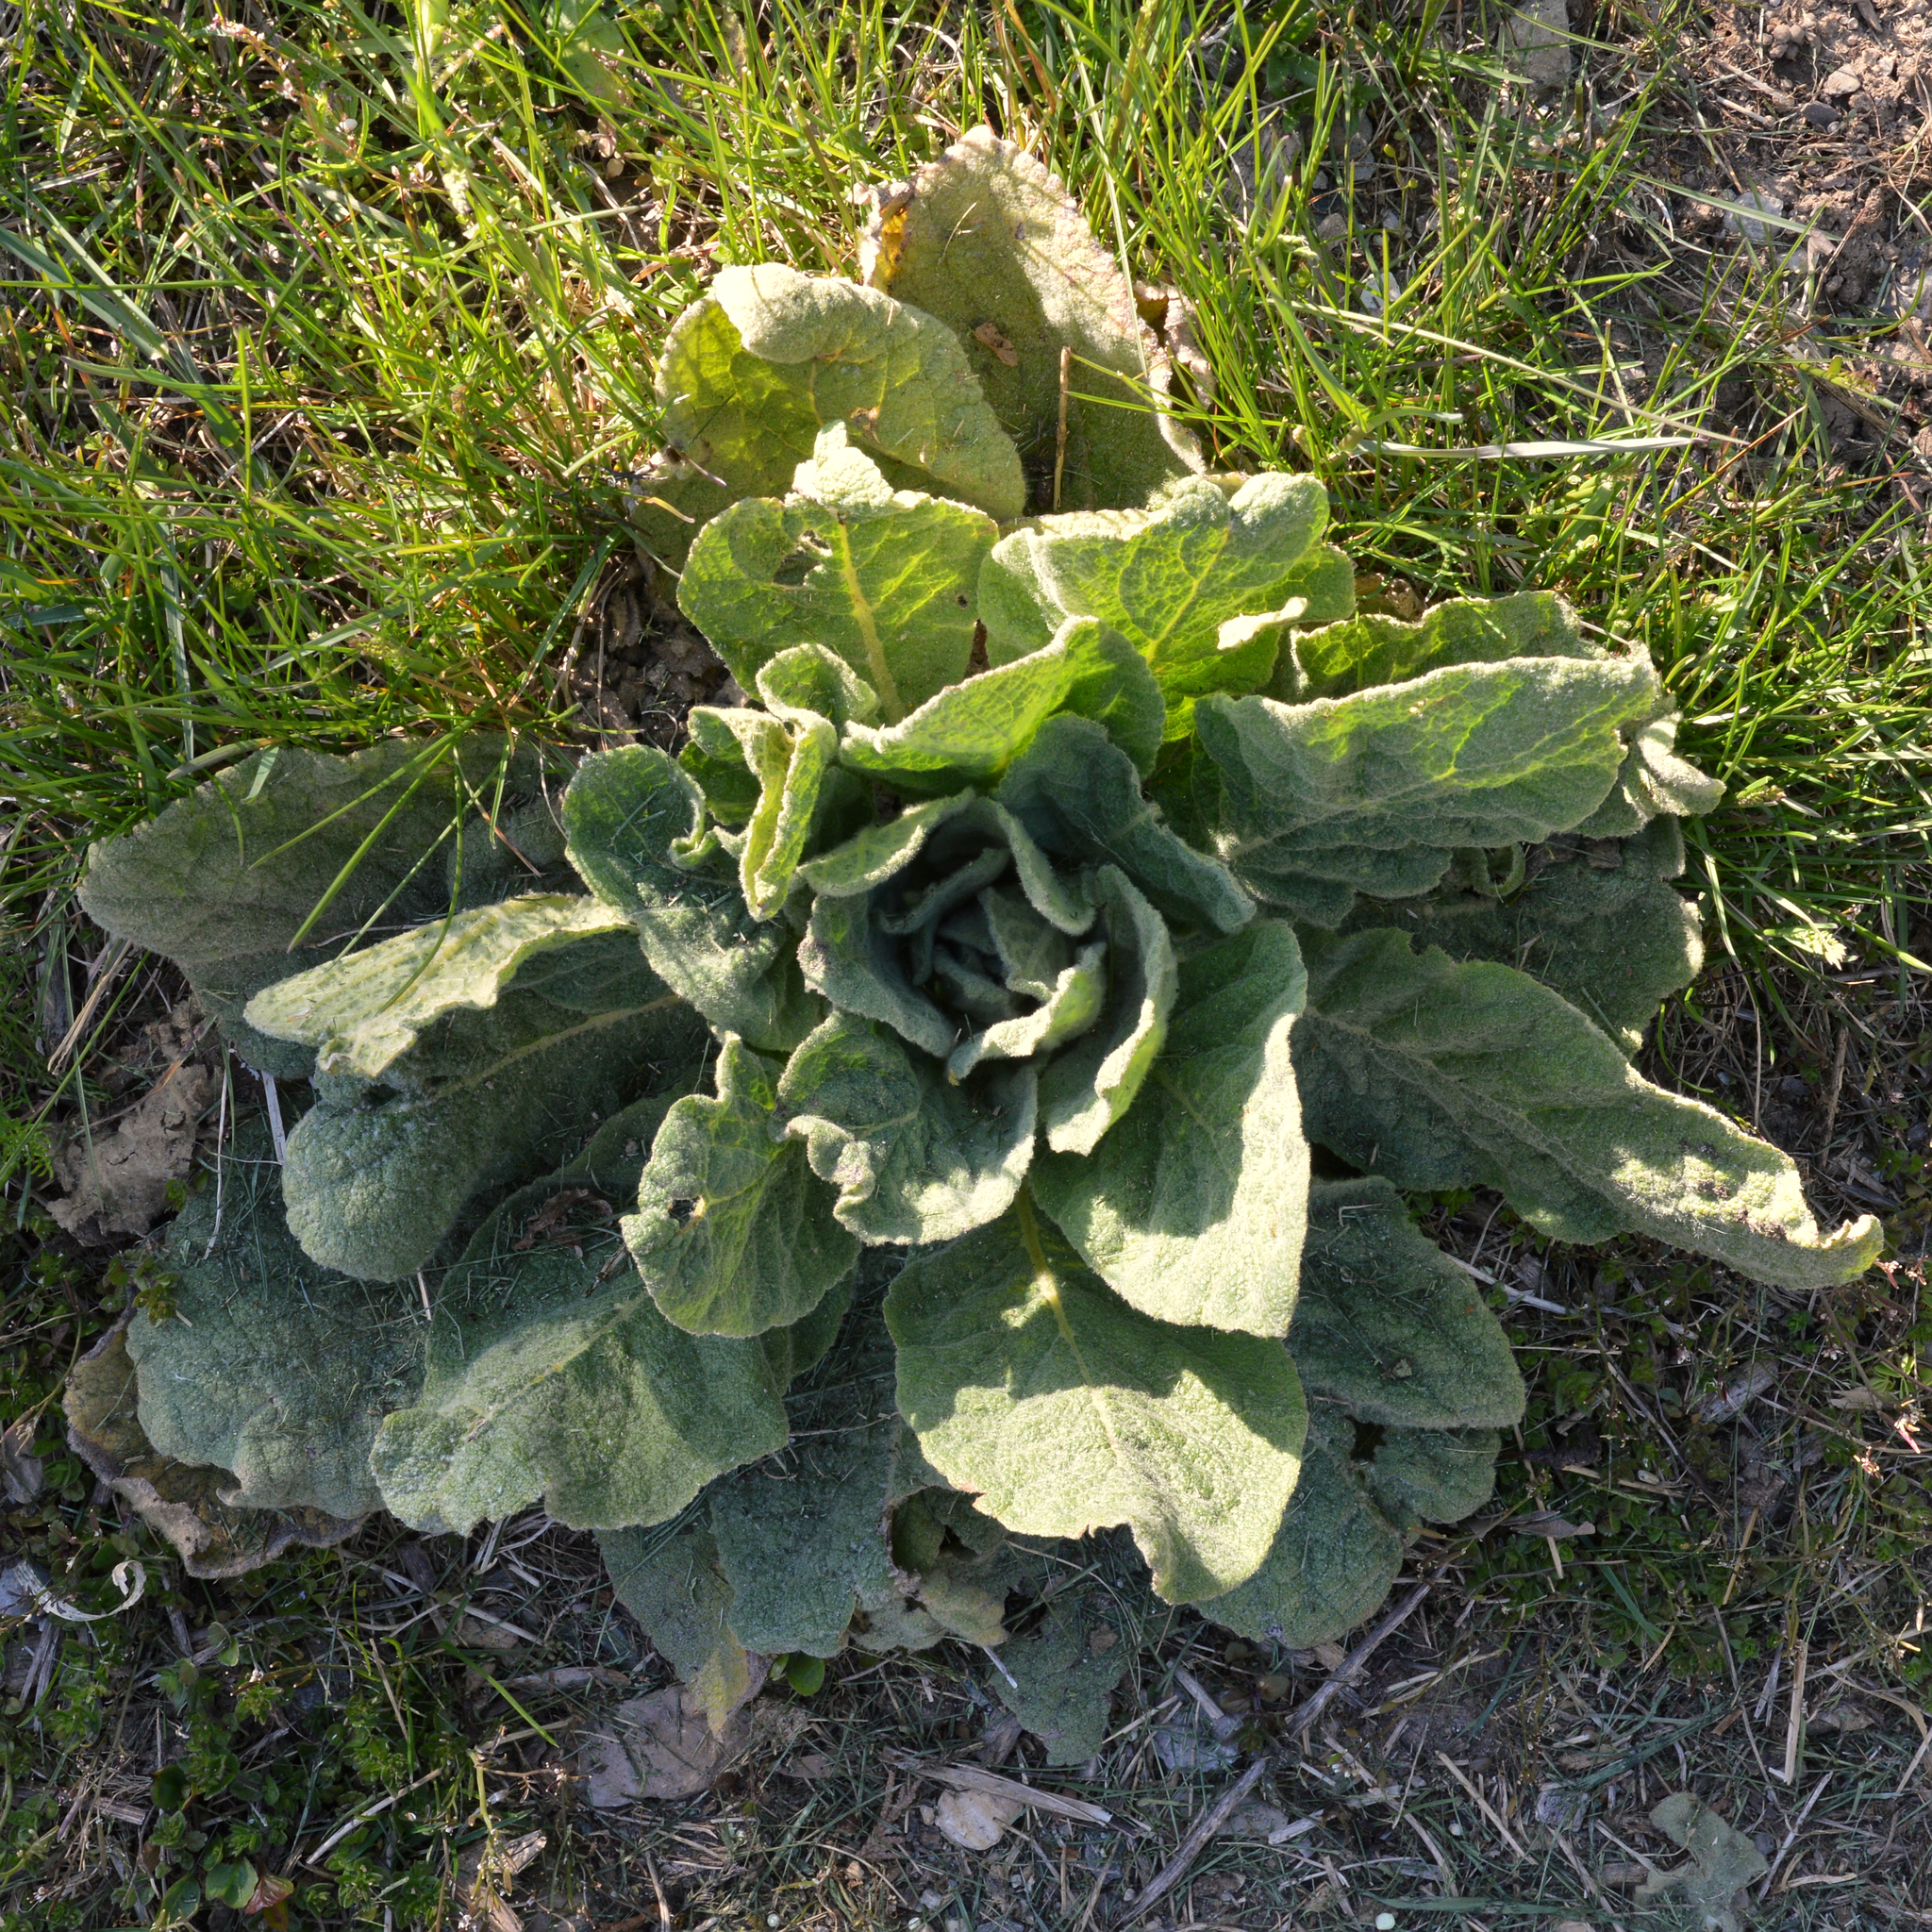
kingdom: Plantae
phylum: Tracheophyta
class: Magnoliopsida
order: Lamiales
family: Scrophulariaceae
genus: Verbascum
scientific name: Verbascum thapsus
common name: Common mullein
